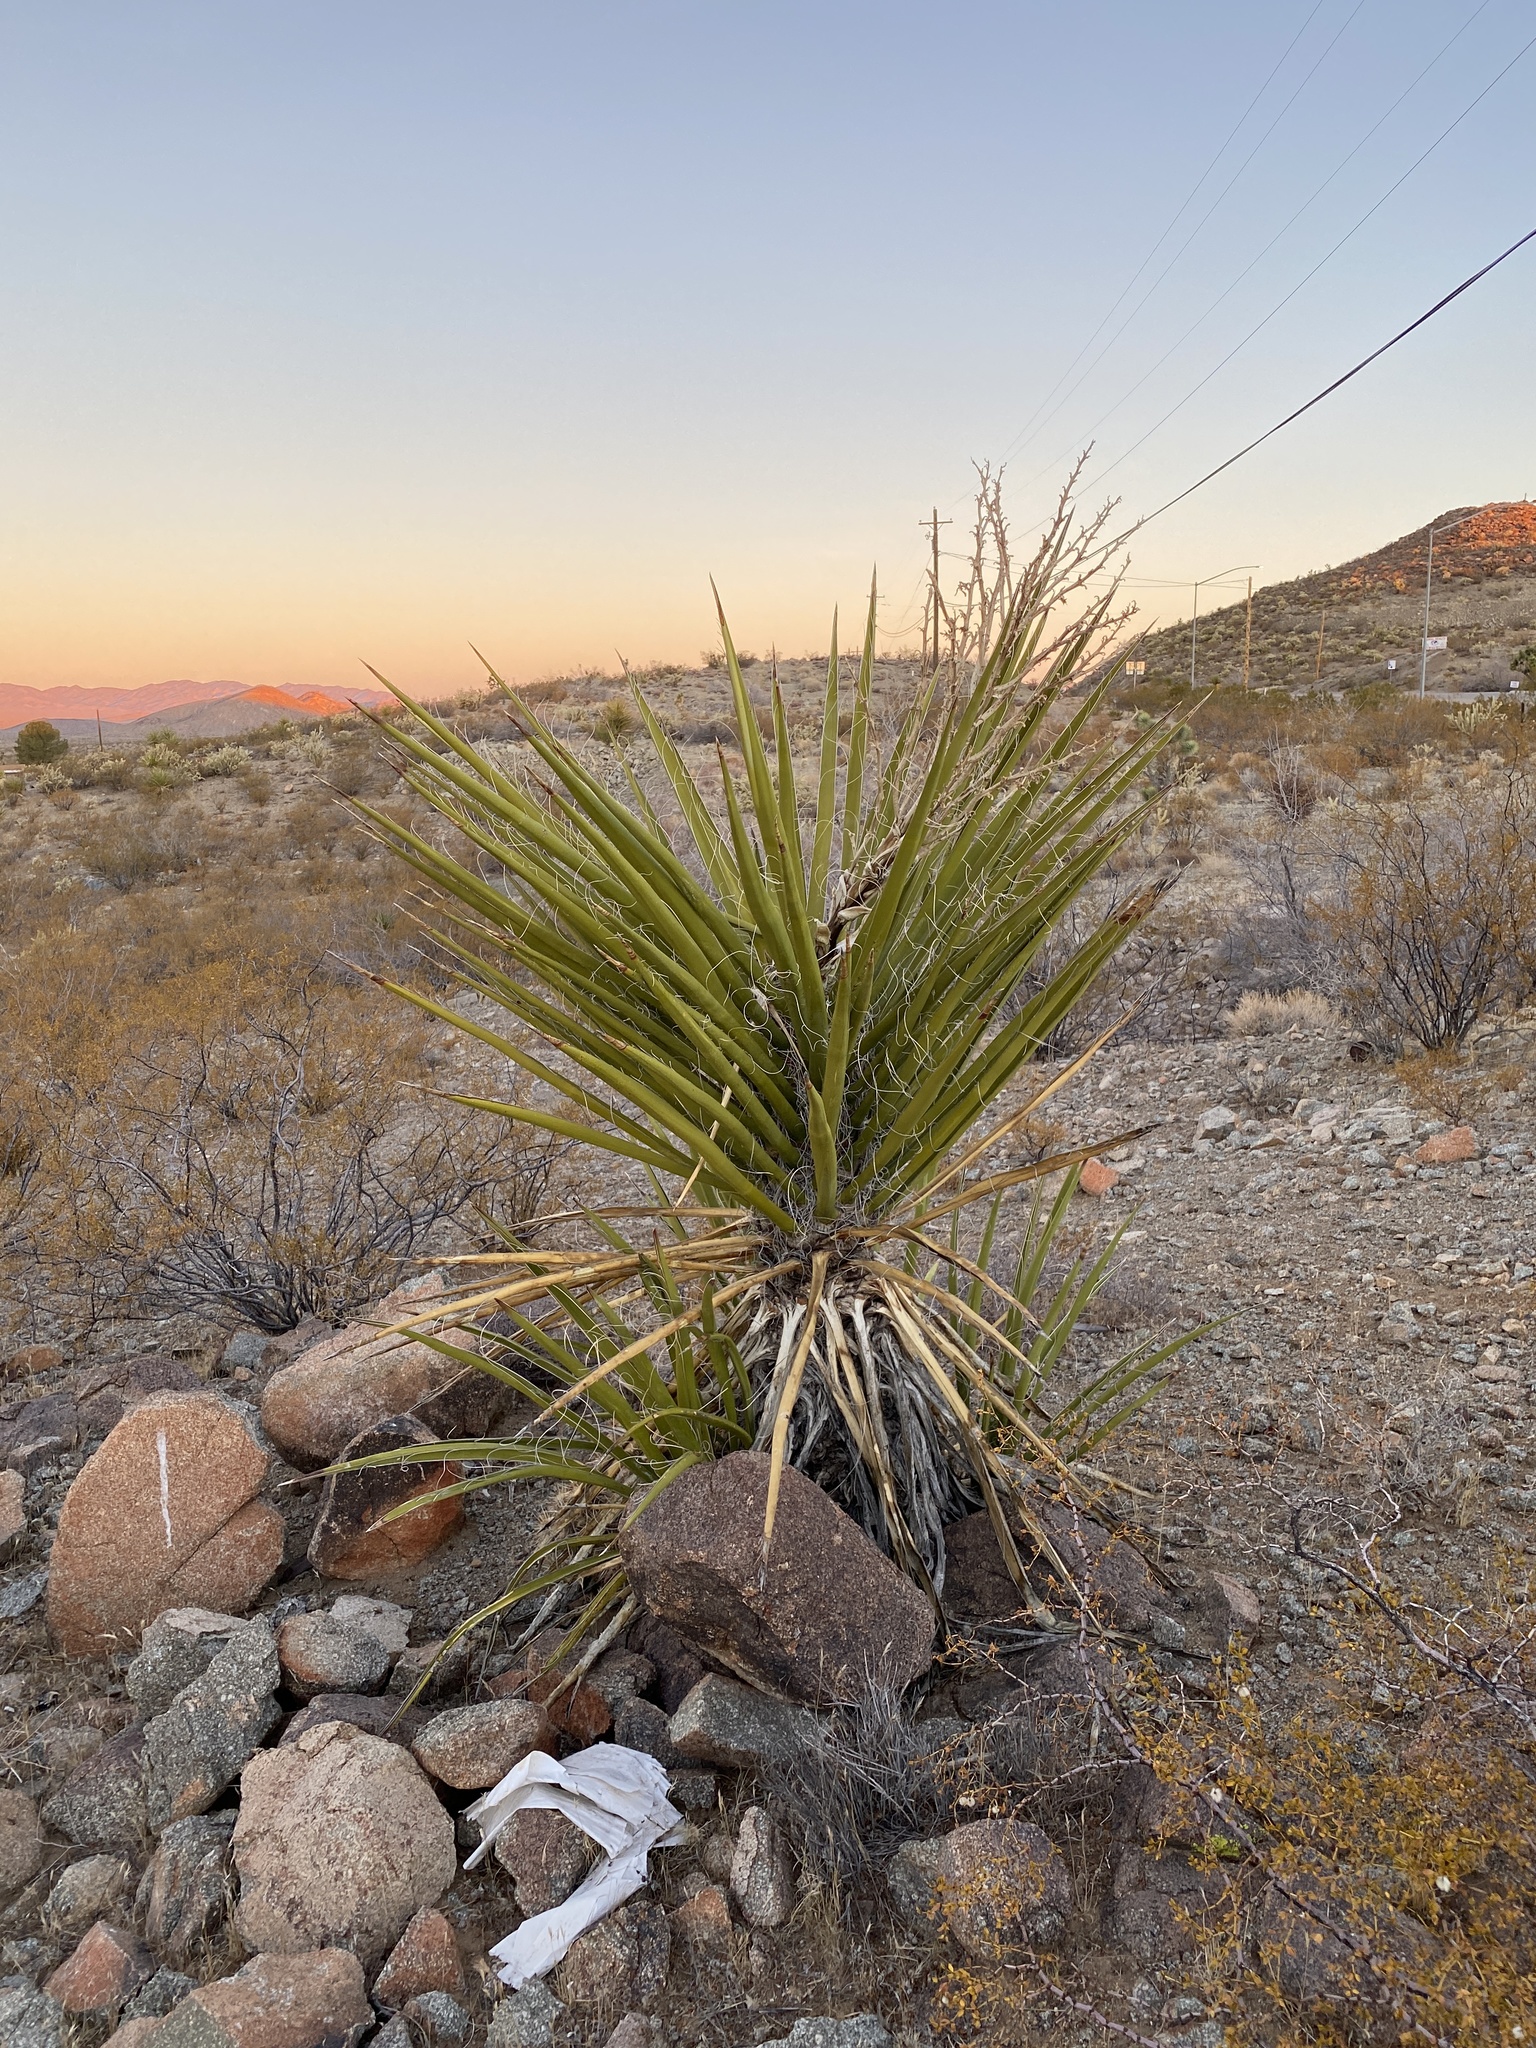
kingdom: Plantae
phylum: Tracheophyta
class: Liliopsida
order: Asparagales
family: Asparagaceae
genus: Yucca
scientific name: Yucca schidigera
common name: Mojave yucca
